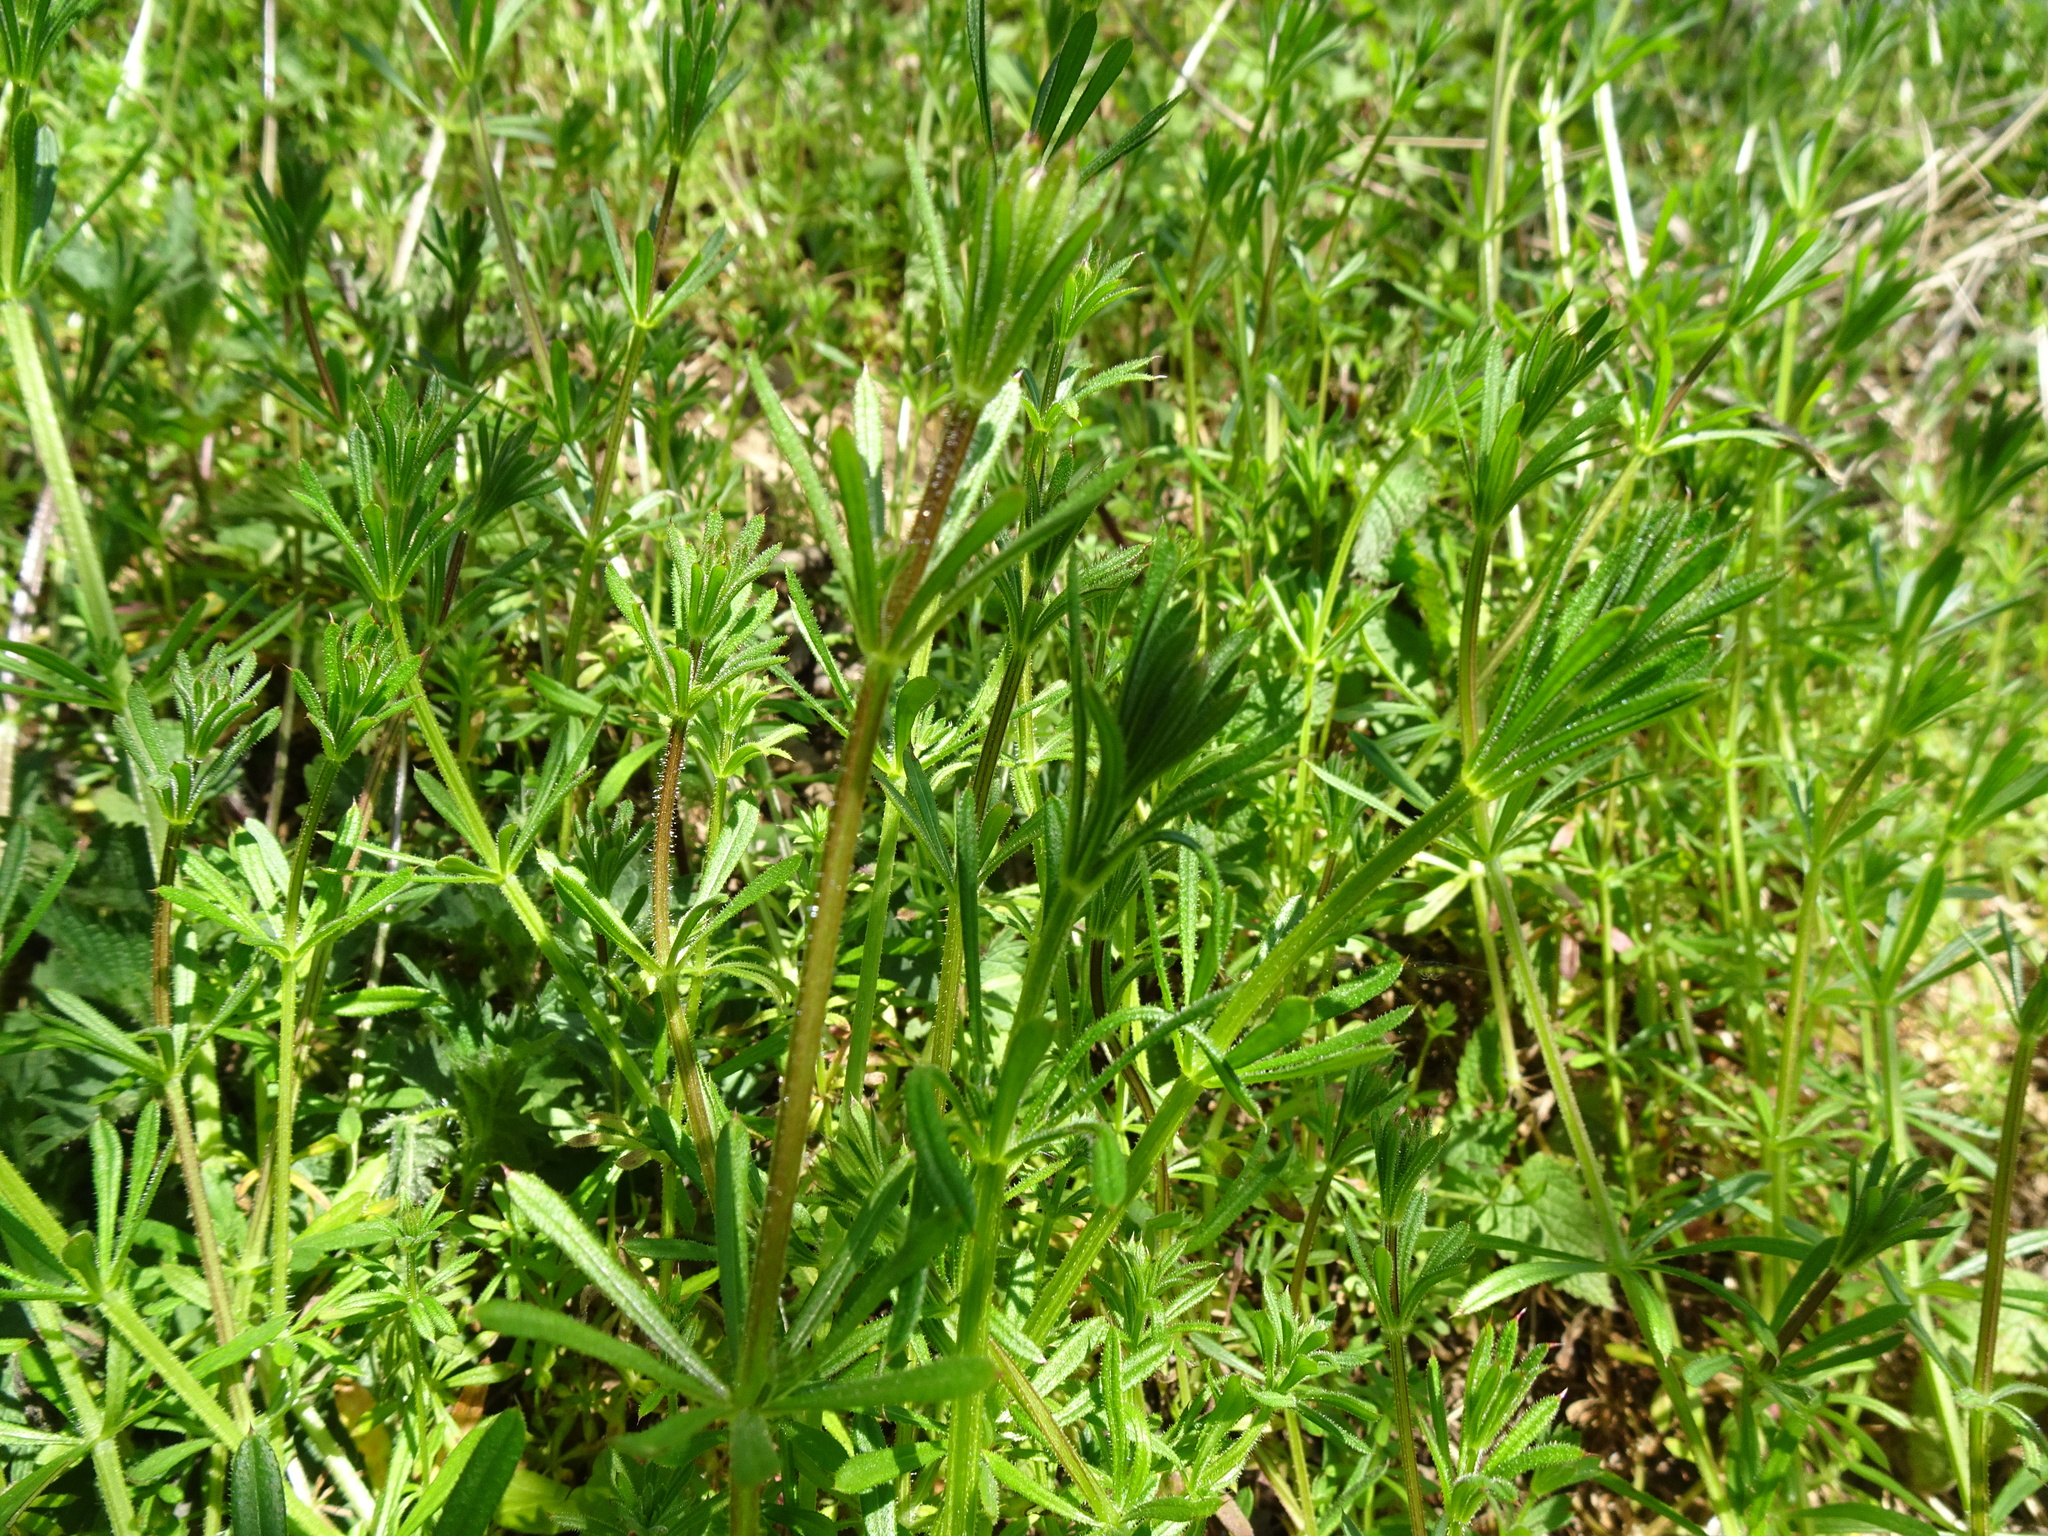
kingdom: Plantae
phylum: Tracheophyta
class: Magnoliopsida
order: Gentianales
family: Rubiaceae
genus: Galium
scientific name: Galium aparine
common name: Cleavers
